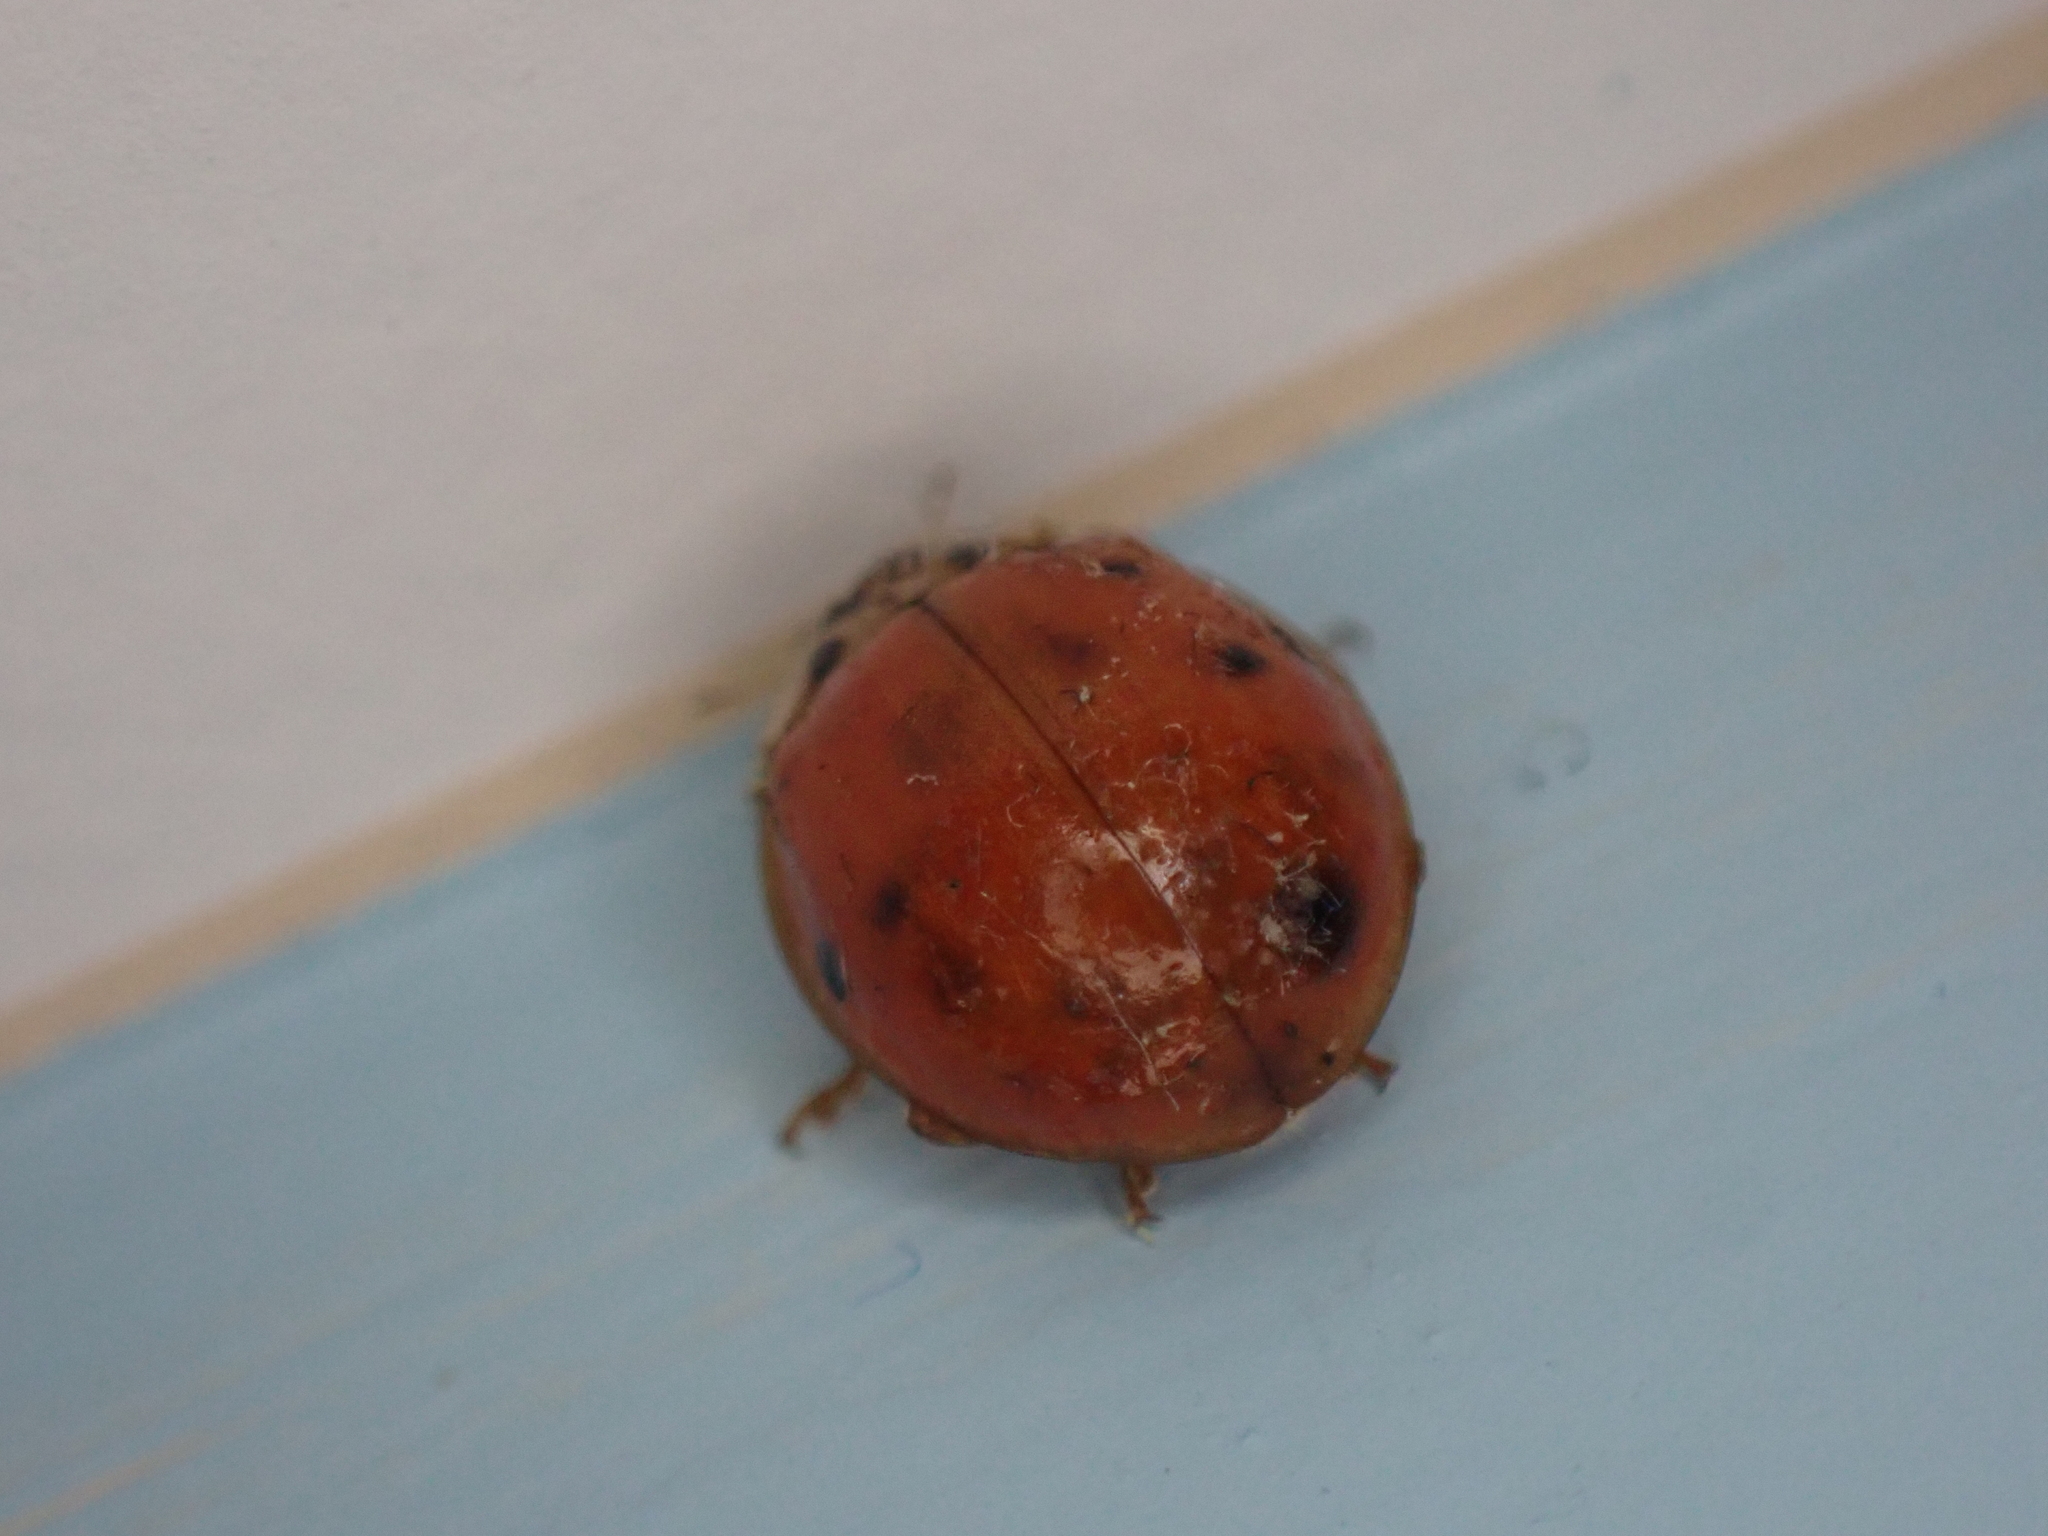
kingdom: Animalia
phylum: Arthropoda
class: Insecta
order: Coleoptera
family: Coccinellidae
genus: Harmonia
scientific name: Harmonia axyridis
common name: Harlequin ladybird
